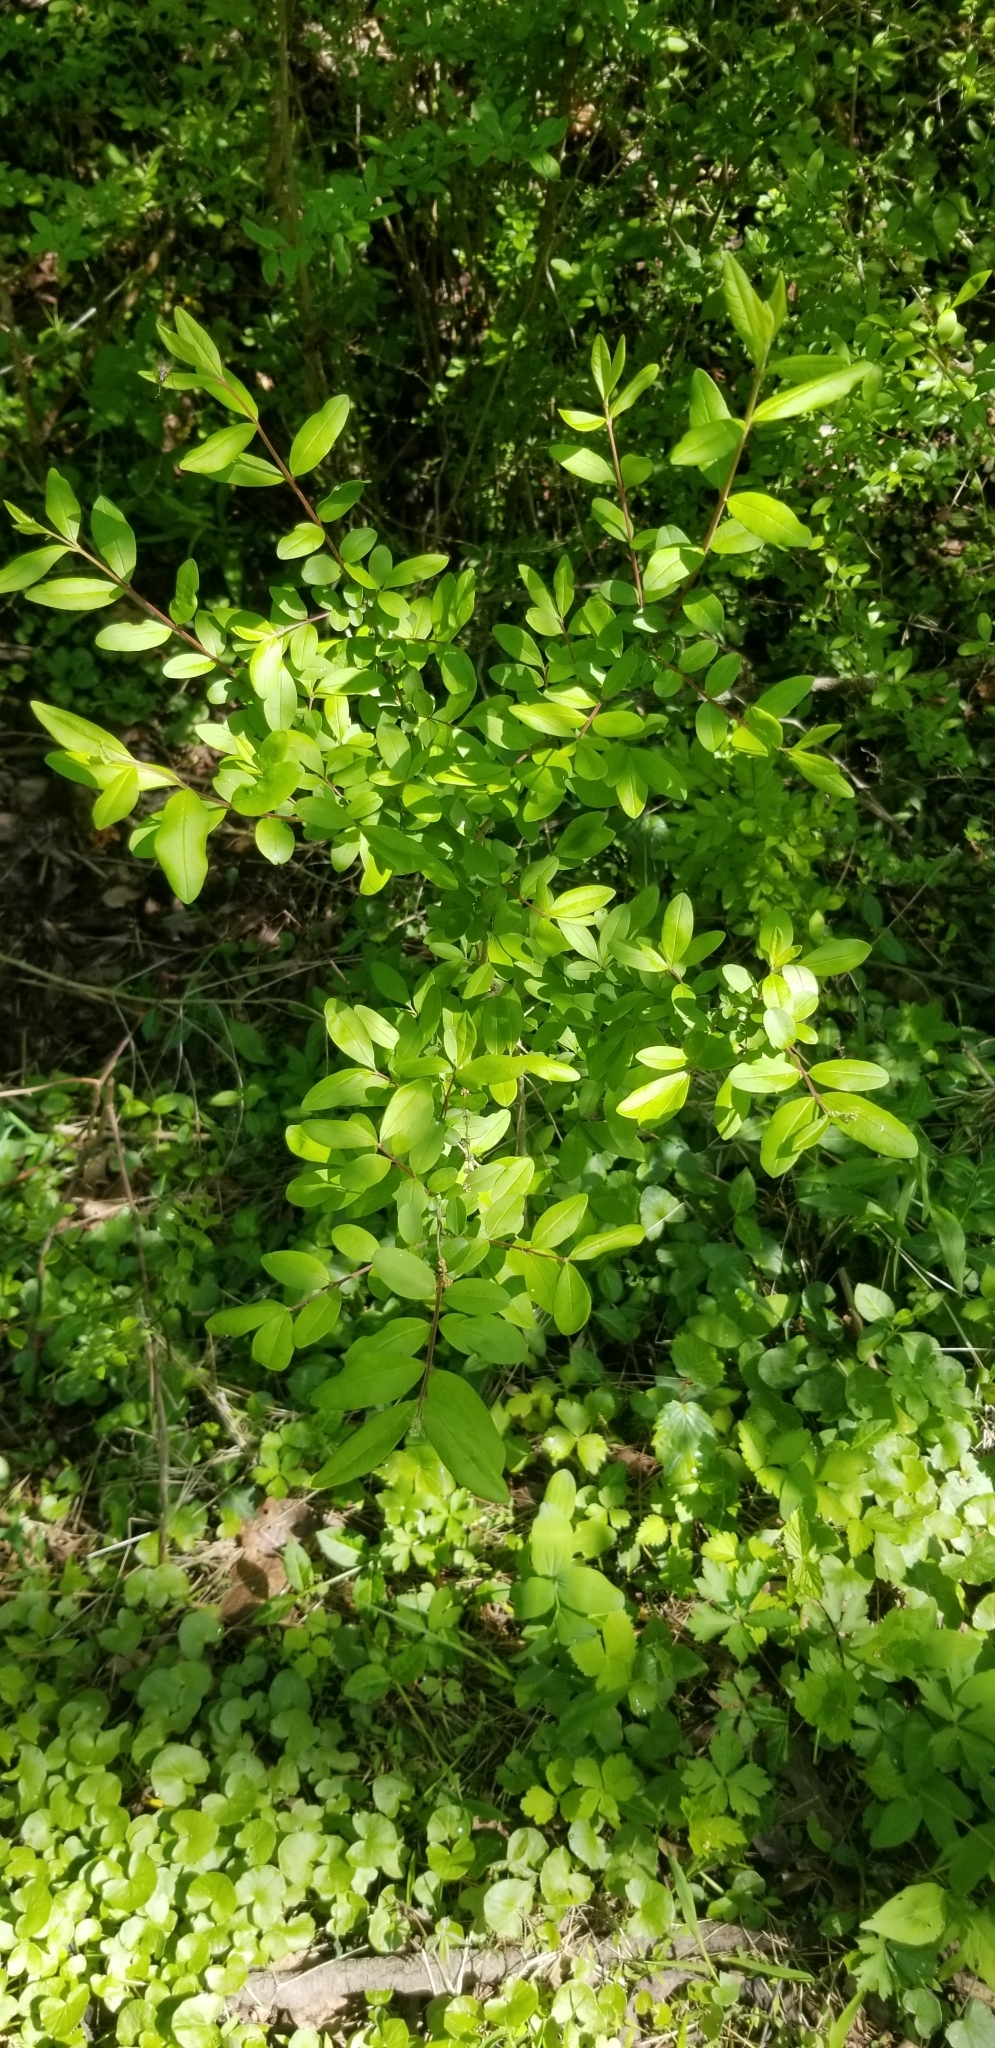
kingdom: Plantae
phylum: Tracheophyta
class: Magnoliopsida
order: Lamiales
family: Oleaceae
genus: Ligustrum
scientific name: Ligustrum obtusifolium
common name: Border privet
